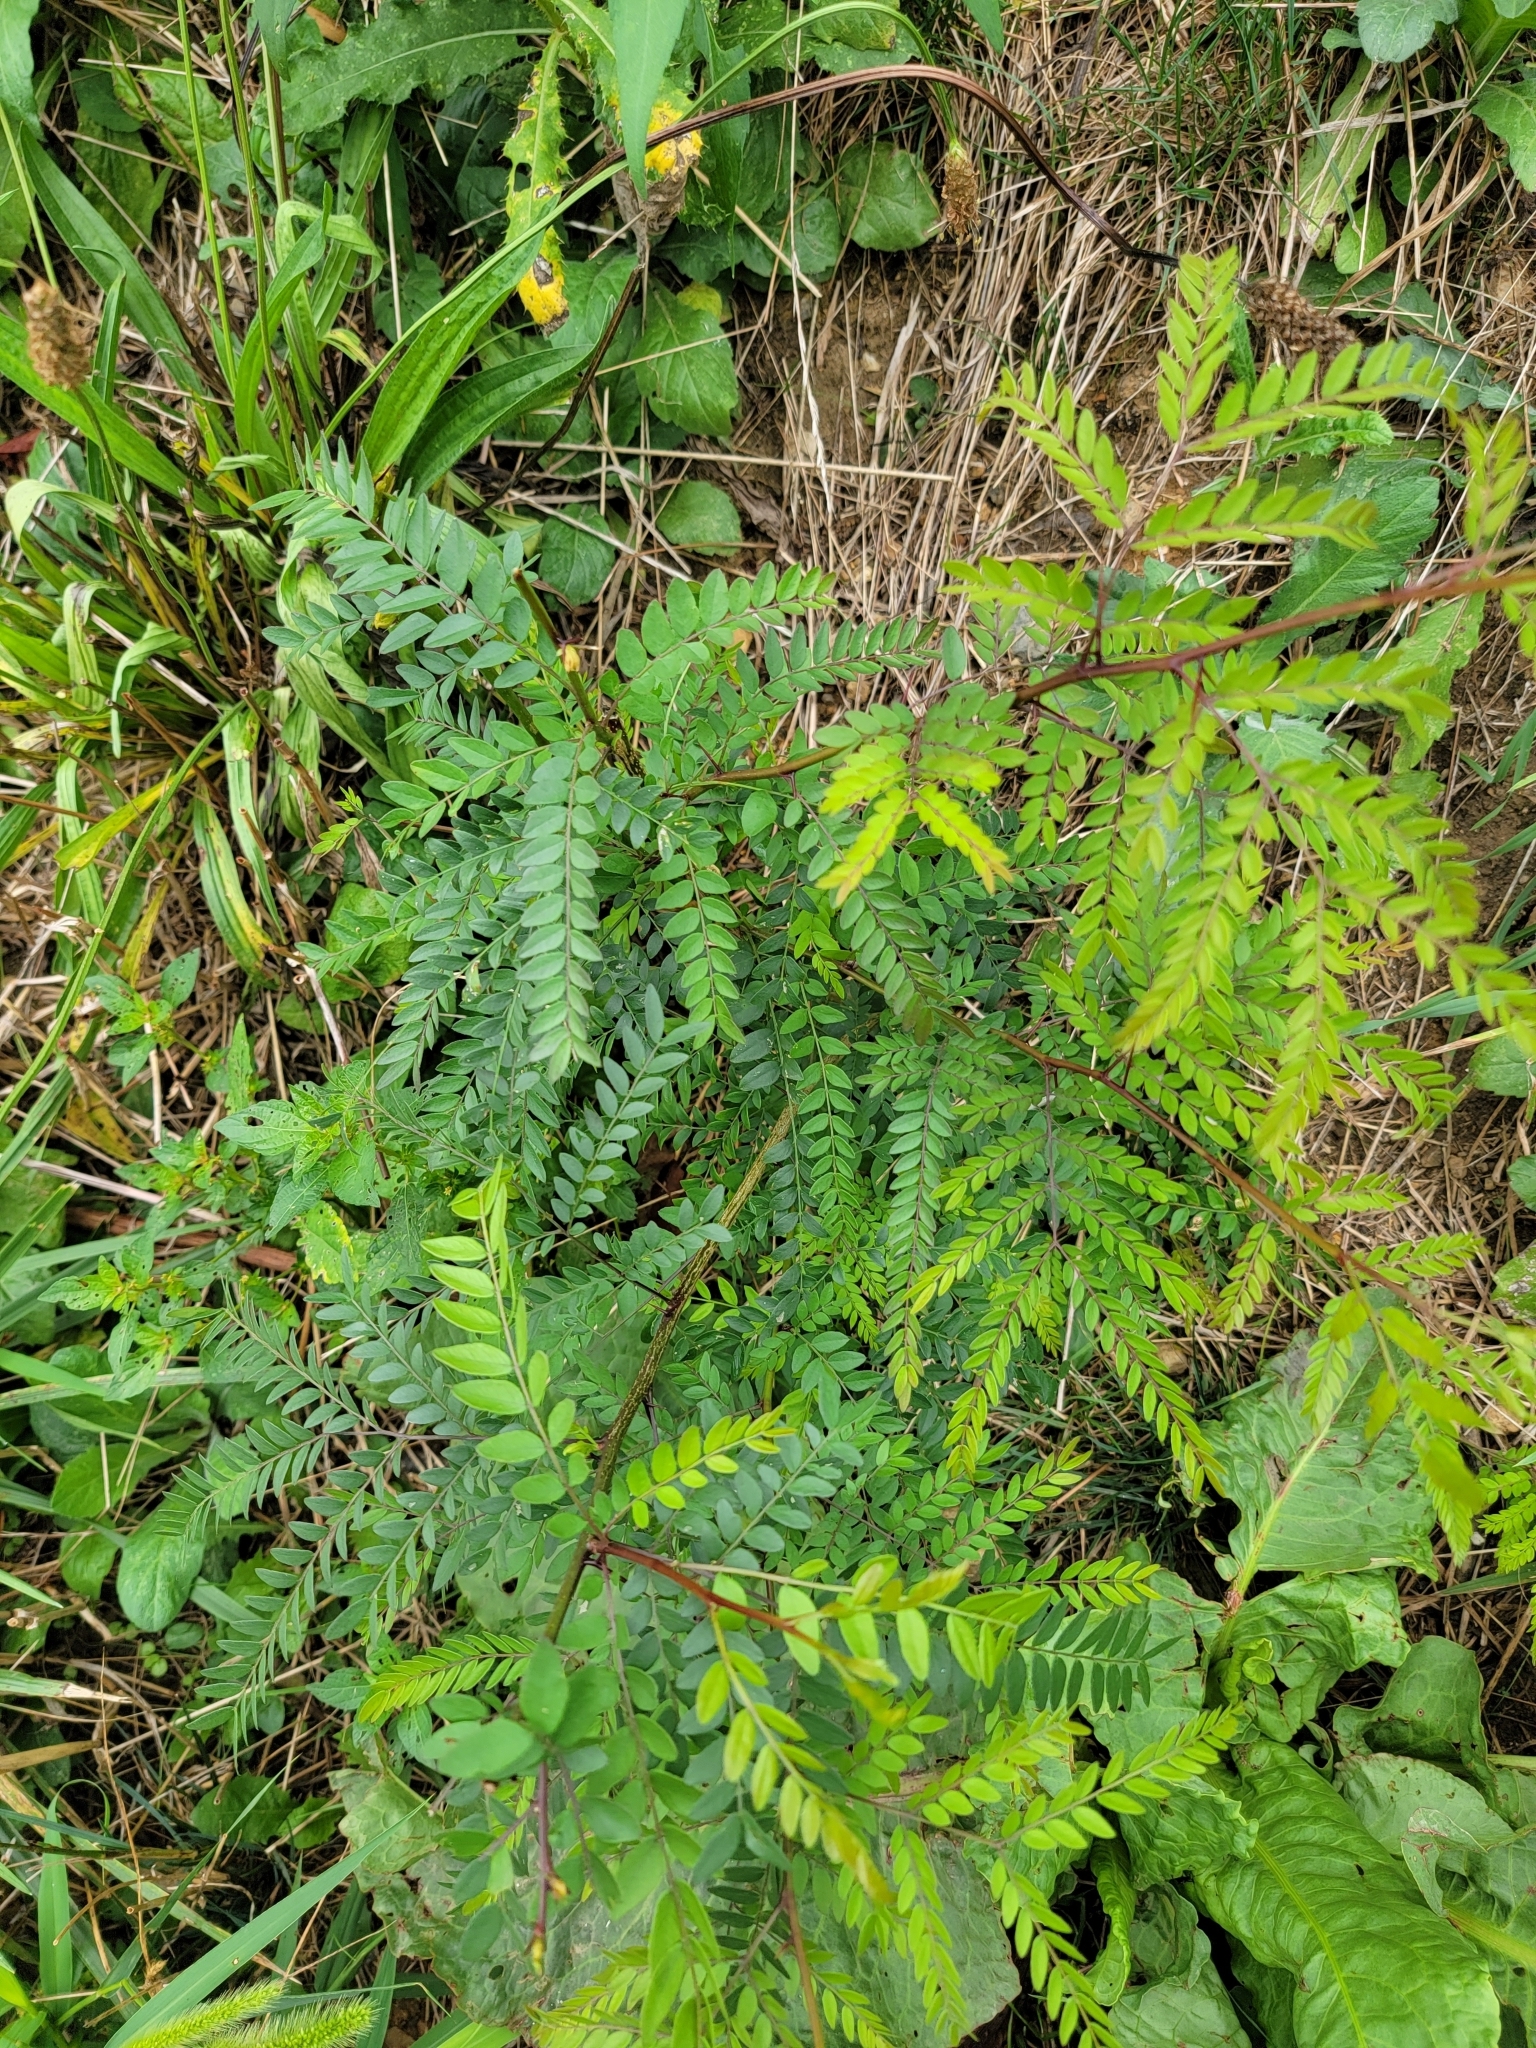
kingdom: Plantae
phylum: Tracheophyta
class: Magnoliopsida
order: Fabales
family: Fabaceae
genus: Gleditsia
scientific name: Gleditsia triacanthos
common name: Common honeylocust
